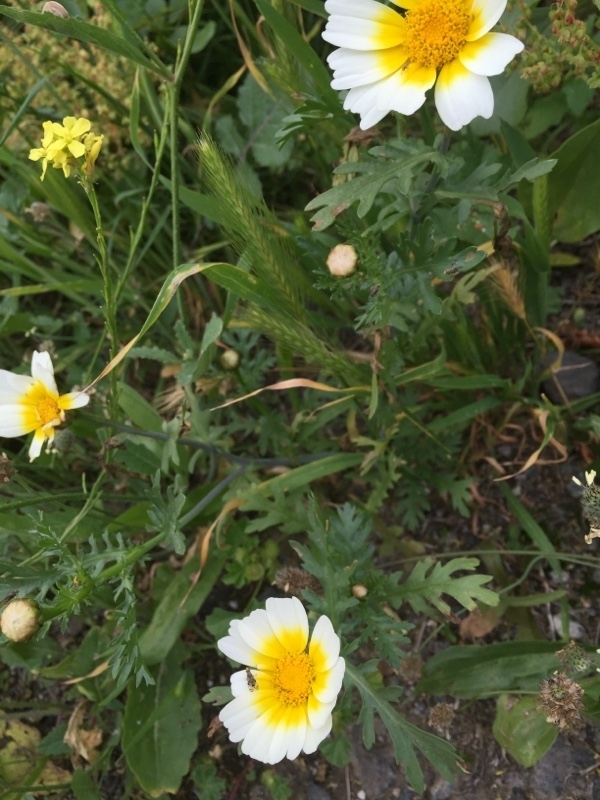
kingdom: Plantae
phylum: Tracheophyta
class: Magnoliopsida
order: Asterales
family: Asteraceae
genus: Glebionis
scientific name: Glebionis coronaria
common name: Crowndaisy
